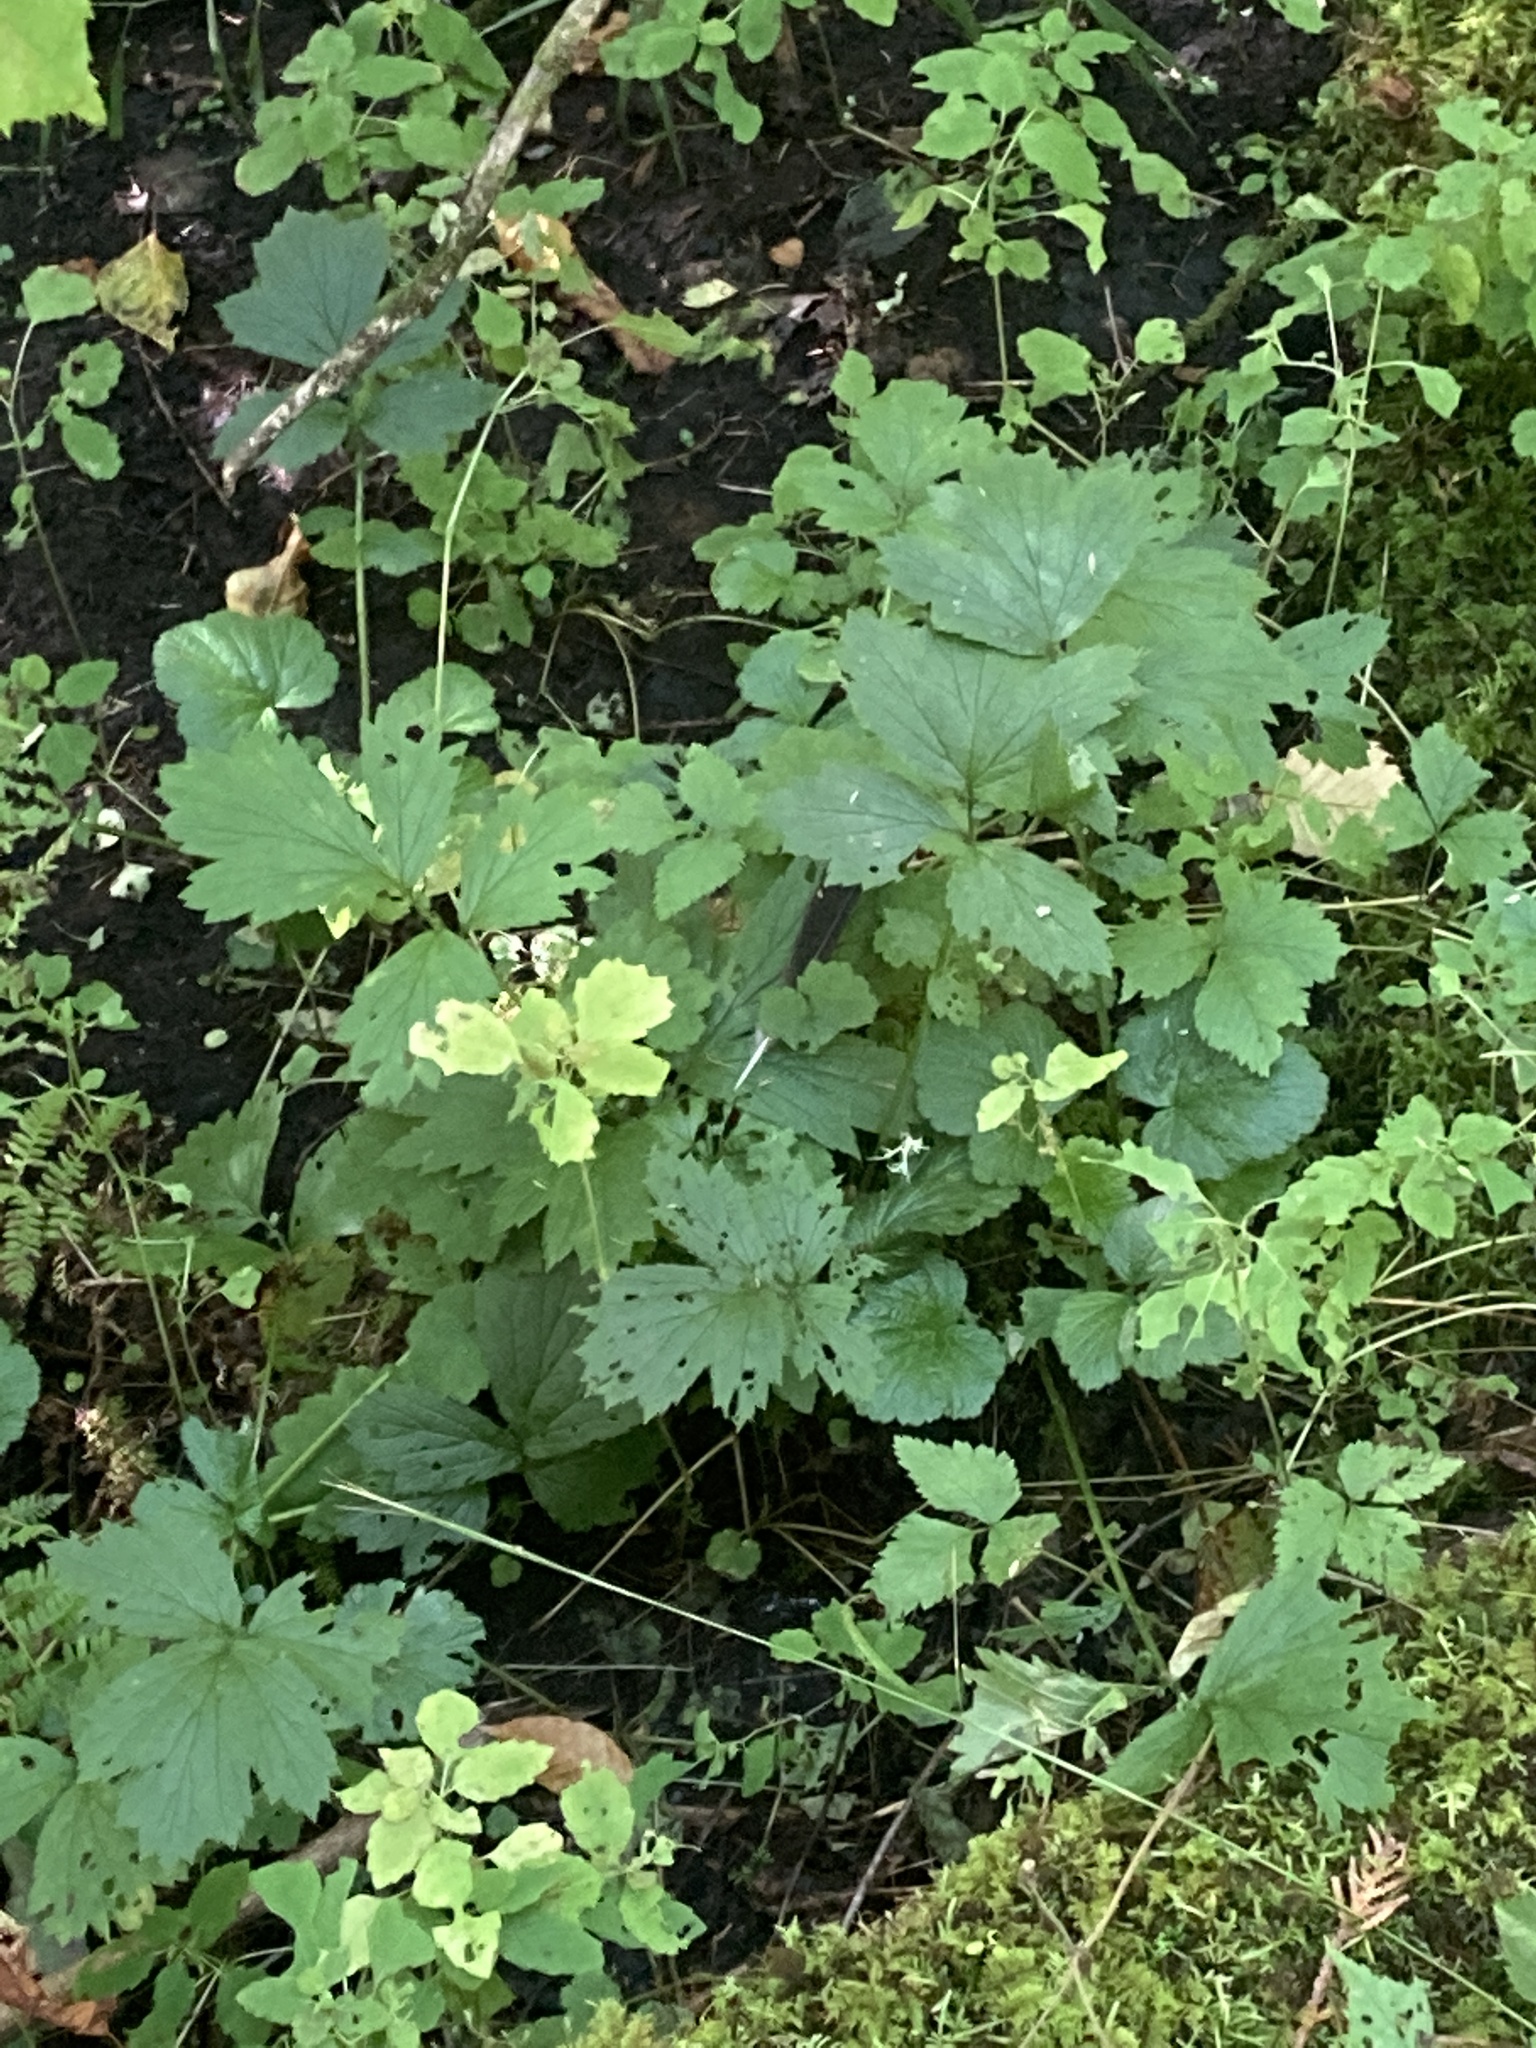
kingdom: Plantae
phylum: Tracheophyta
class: Magnoliopsida
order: Rosales
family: Rosaceae
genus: Geum
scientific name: Geum rivale
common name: Water avens
